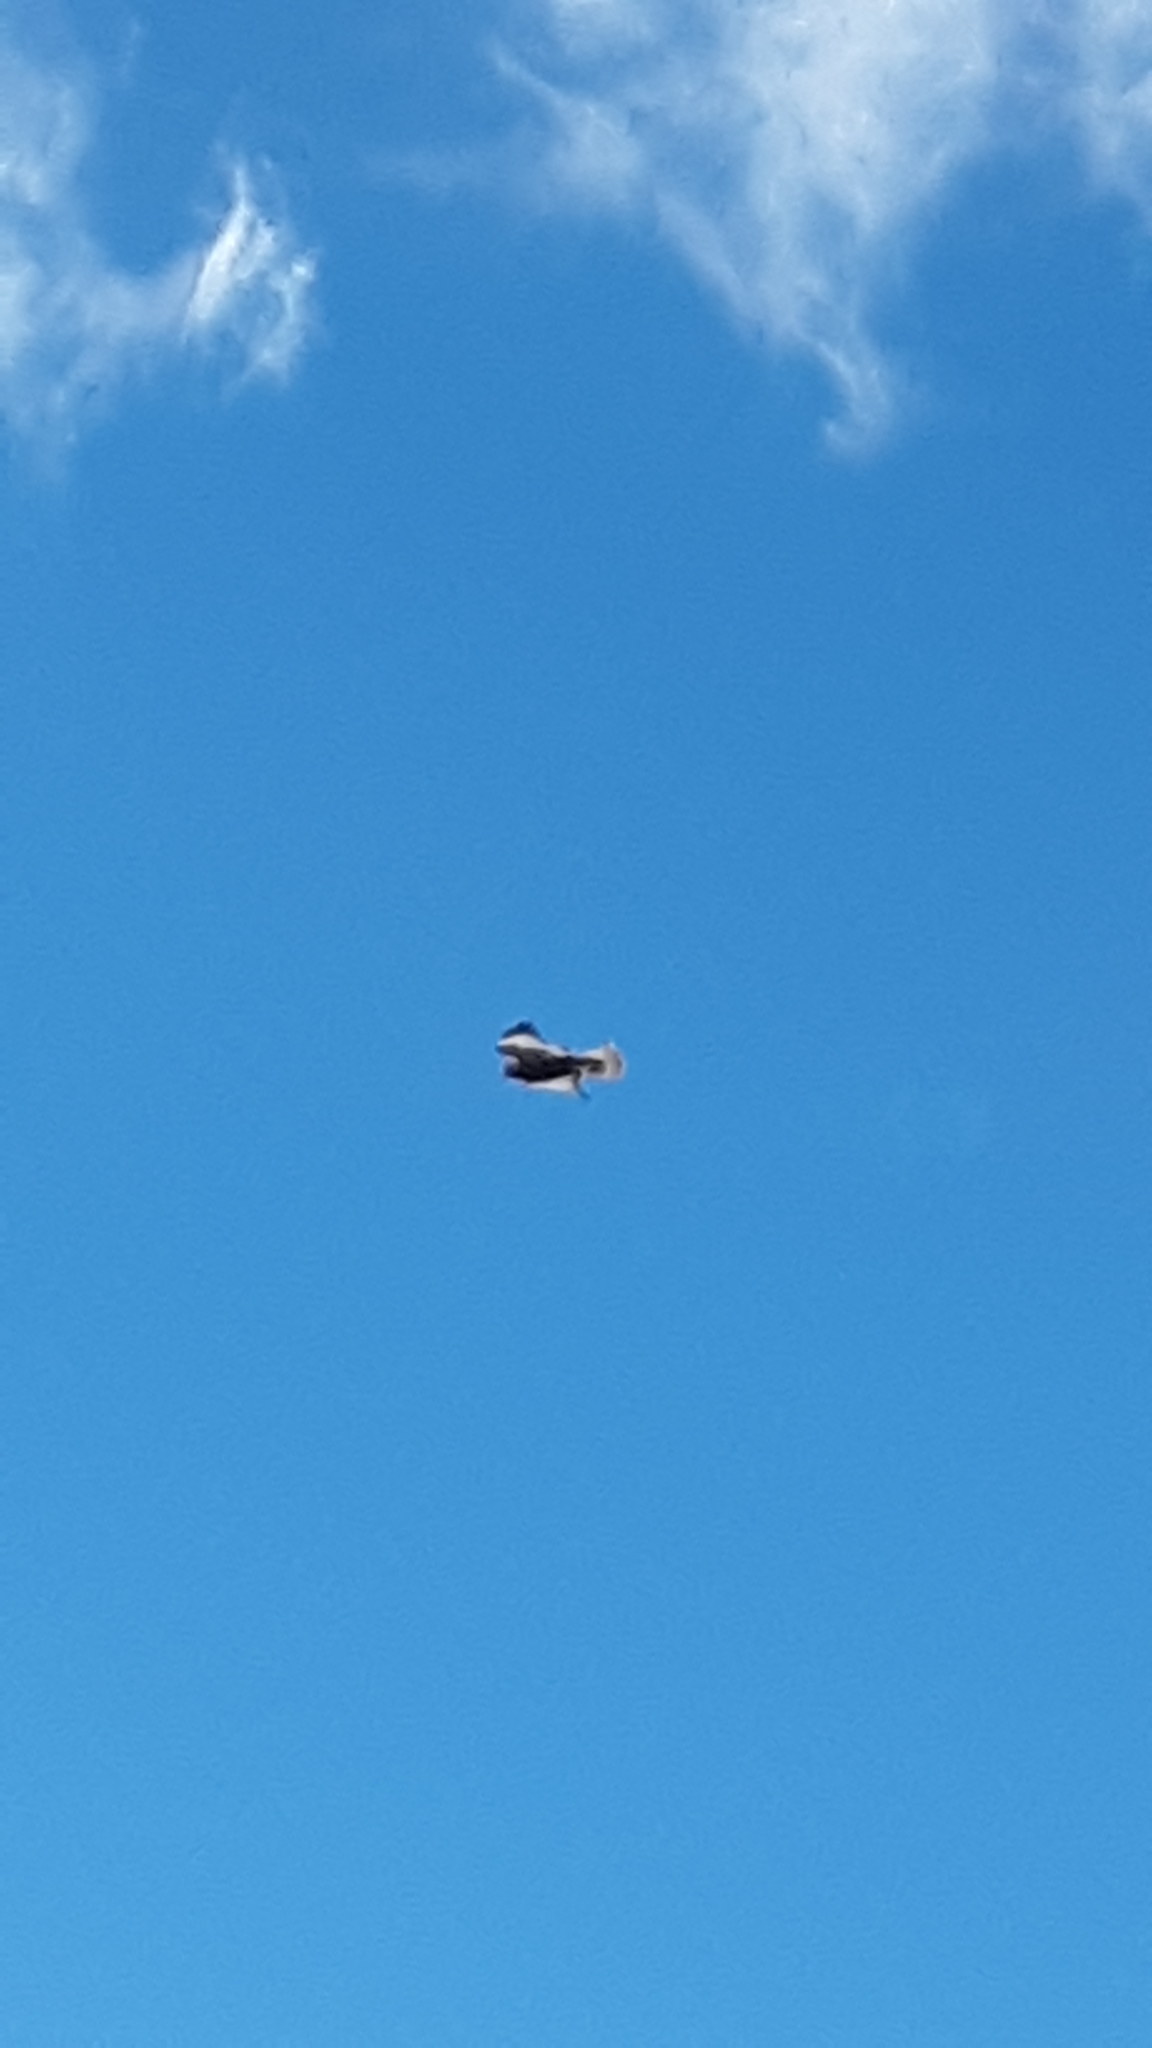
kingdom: Animalia
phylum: Chordata
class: Aves
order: Accipitriformes
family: Accipitridae
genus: Buteo
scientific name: Buteo lagopus
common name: Rough-legged buzzard
